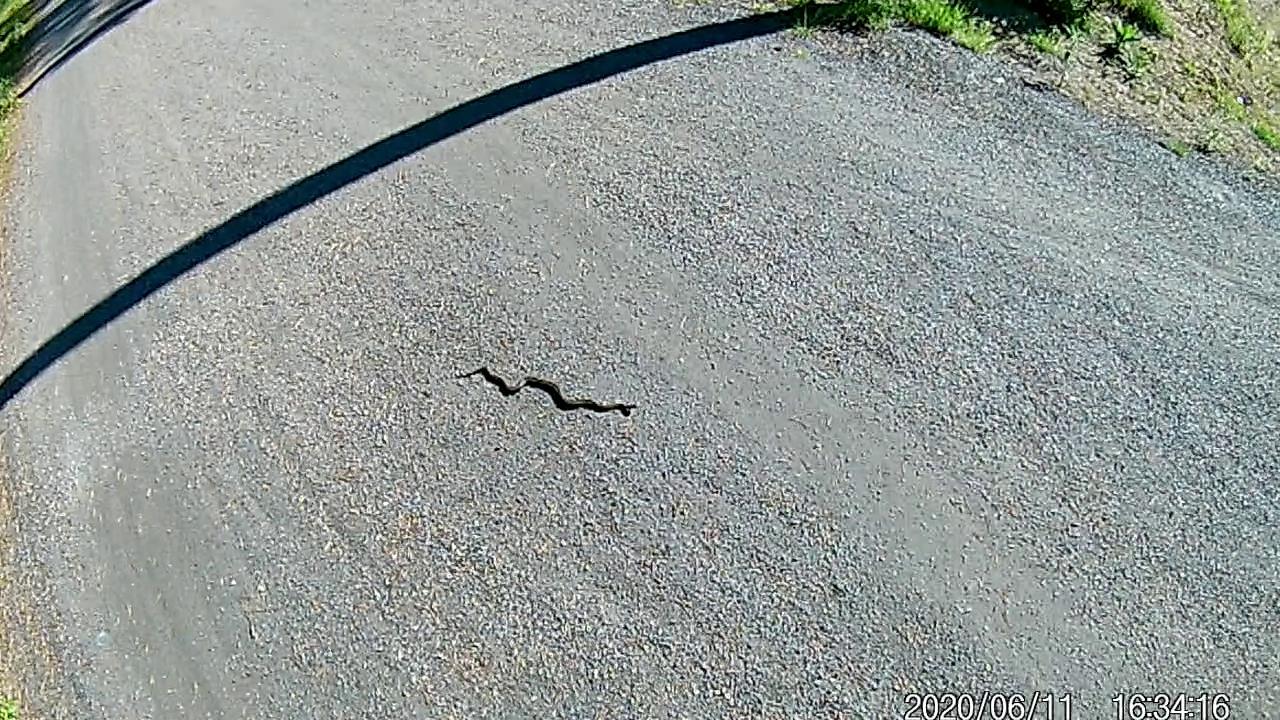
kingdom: Animalia
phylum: Chordata
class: Squamata
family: Viperidae
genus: Vipera
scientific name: Vipera berus
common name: Adder
